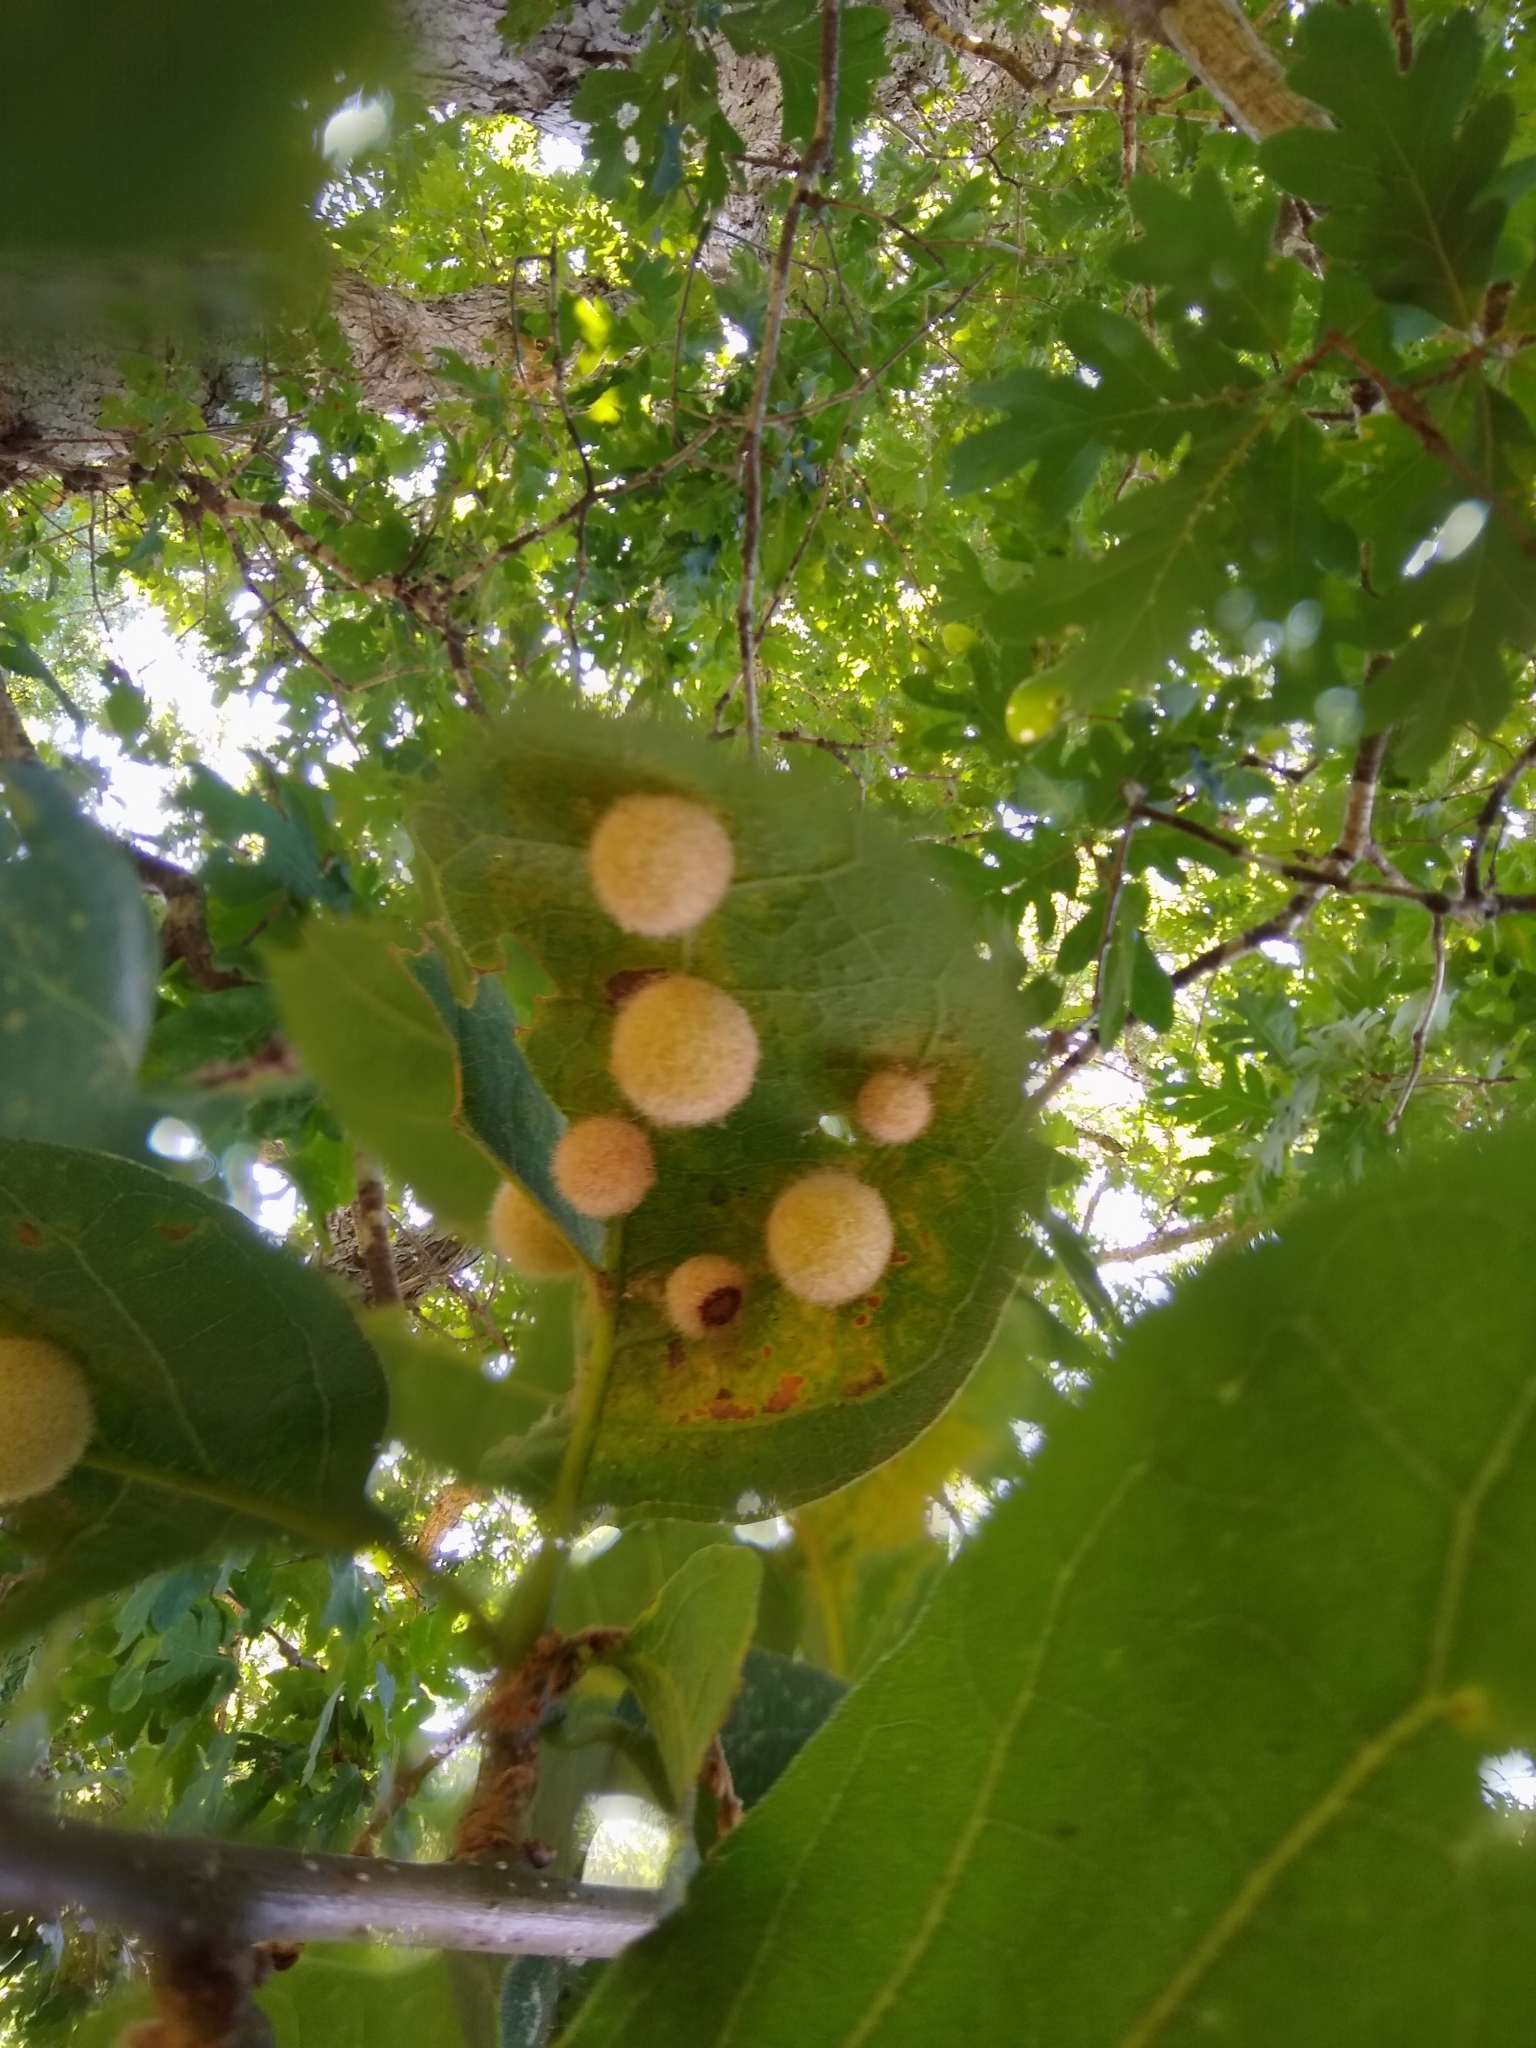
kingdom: Animalia
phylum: Arthropoda
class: Insecta
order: Hymenoptera
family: Cynipidae
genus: Philonix
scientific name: Philonix fulvicollis
